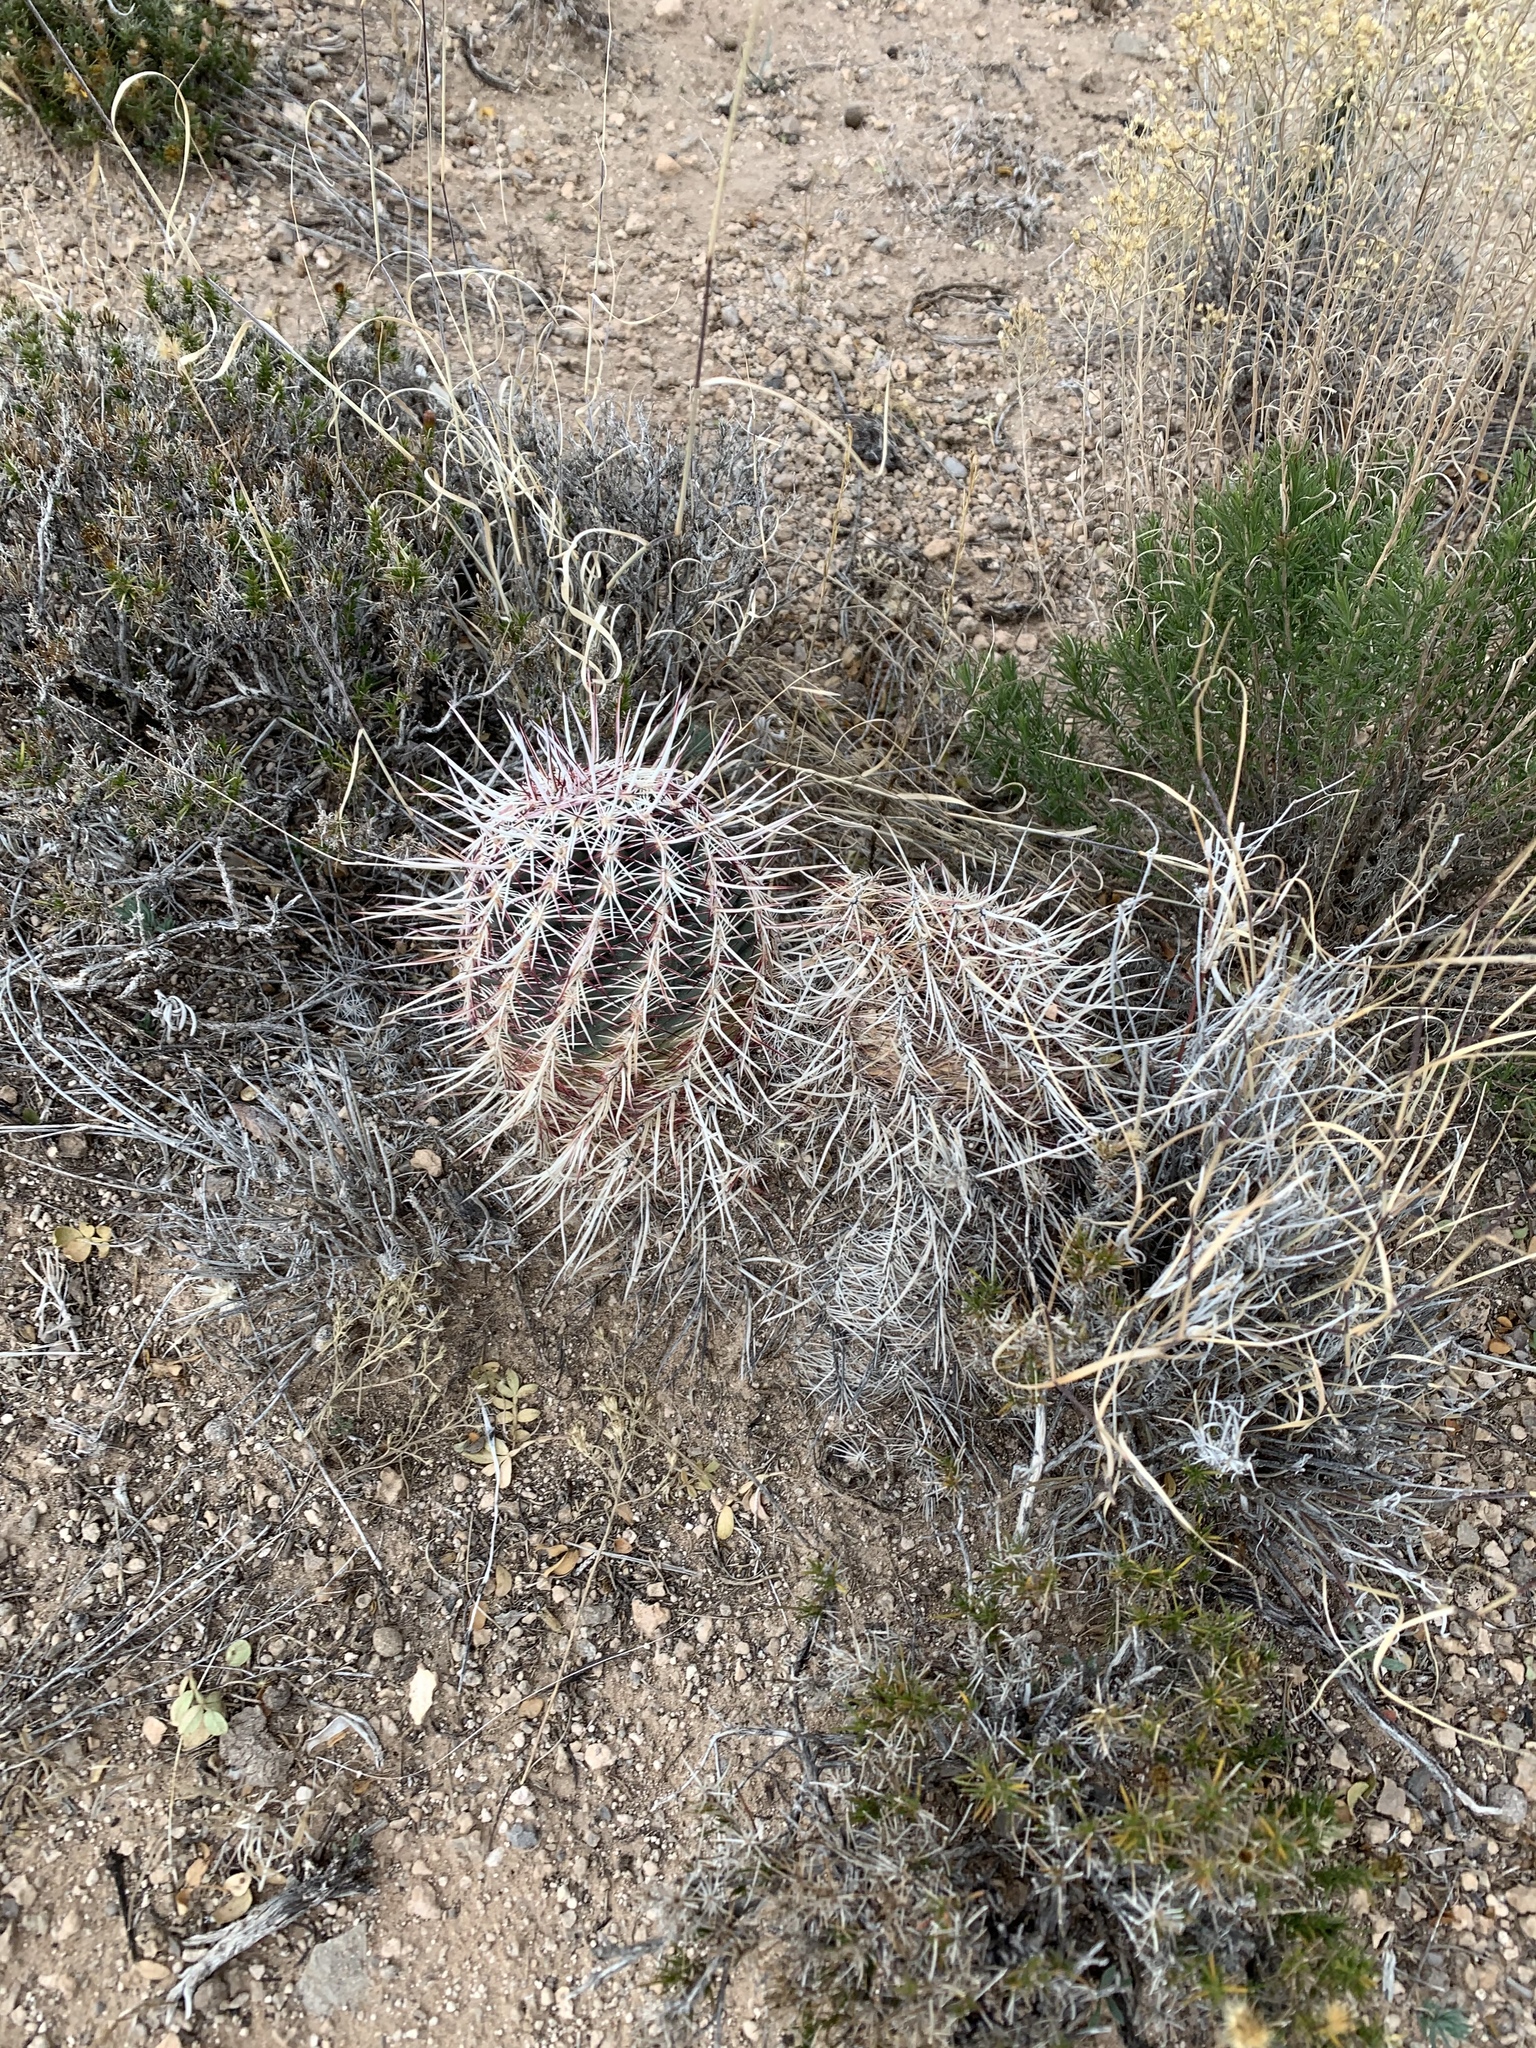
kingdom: Plantae
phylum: Tracheophyta
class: Magnoliopsida
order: Caryophyllales
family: Cactaceae
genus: Echinocereus
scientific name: Echinocereus viridiflorus
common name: Nylon hedgehog cactus
